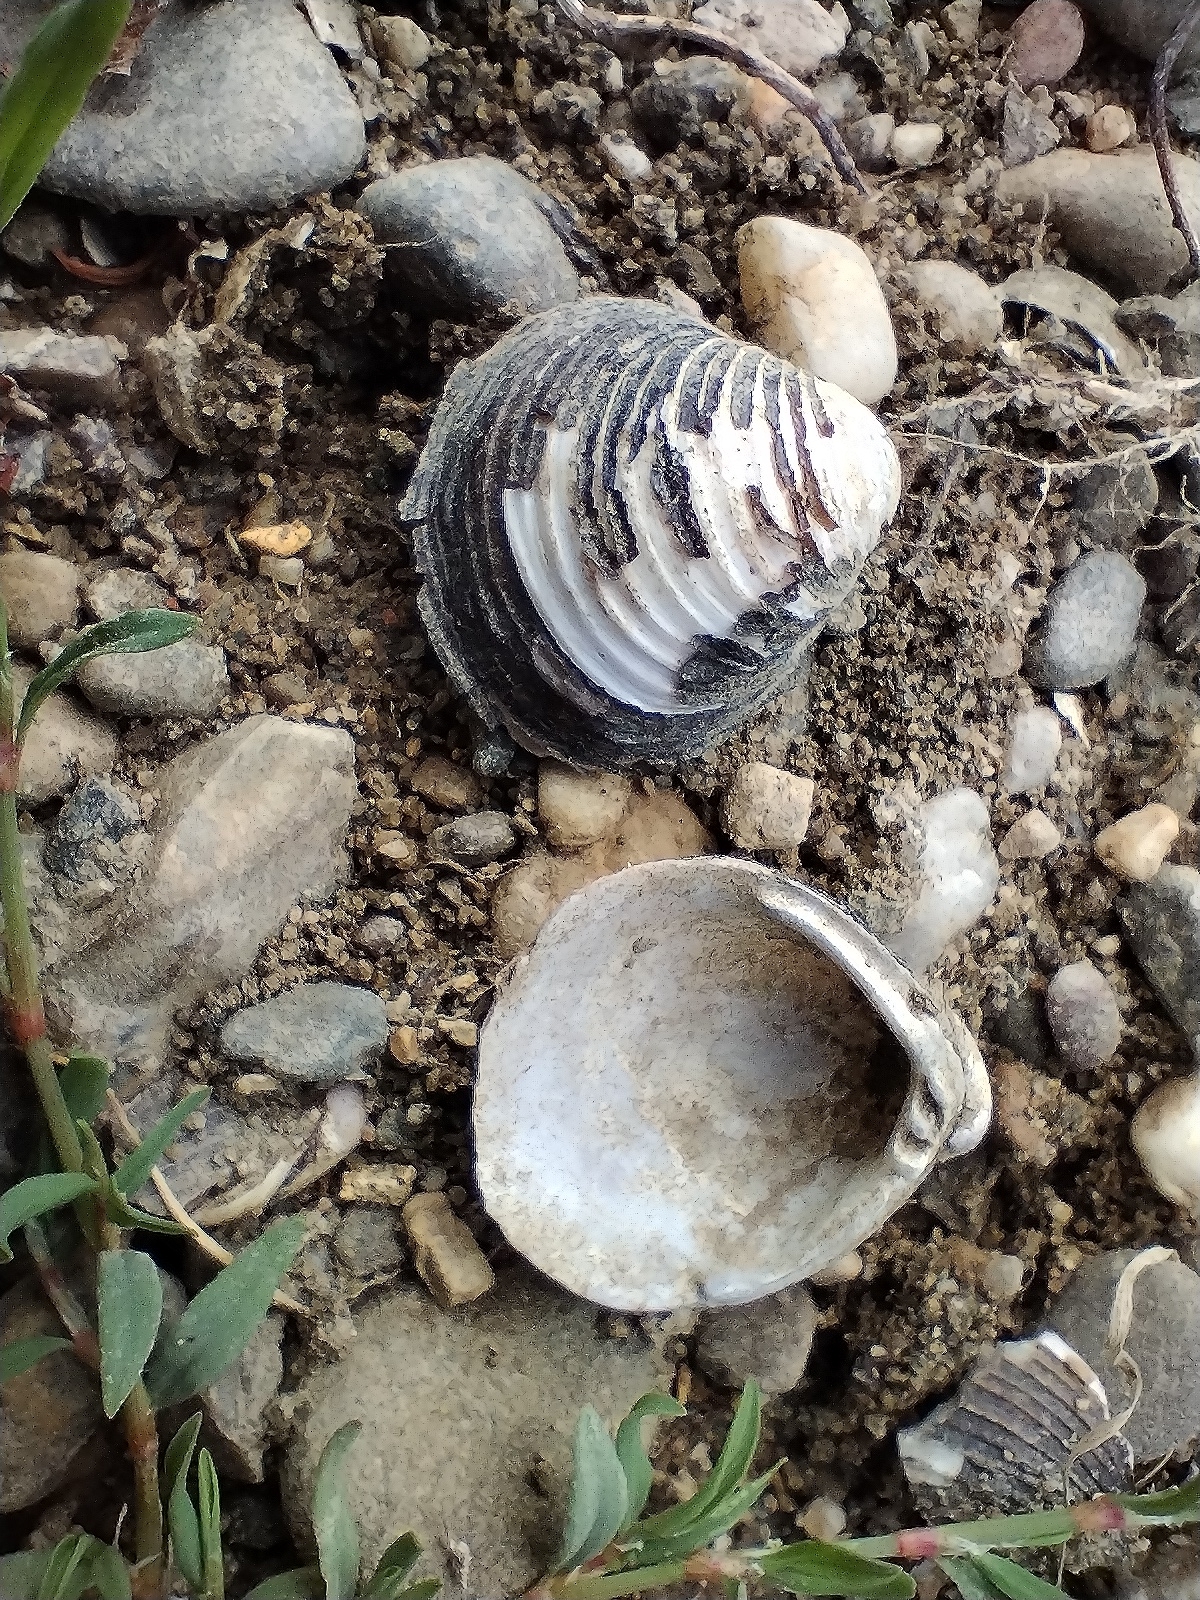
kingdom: Animalia
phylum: Mollusca
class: Bivalvia
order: Venerida
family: Cyrenidae
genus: Corbicula
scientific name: Corbicula fluminea
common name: Asian clam
